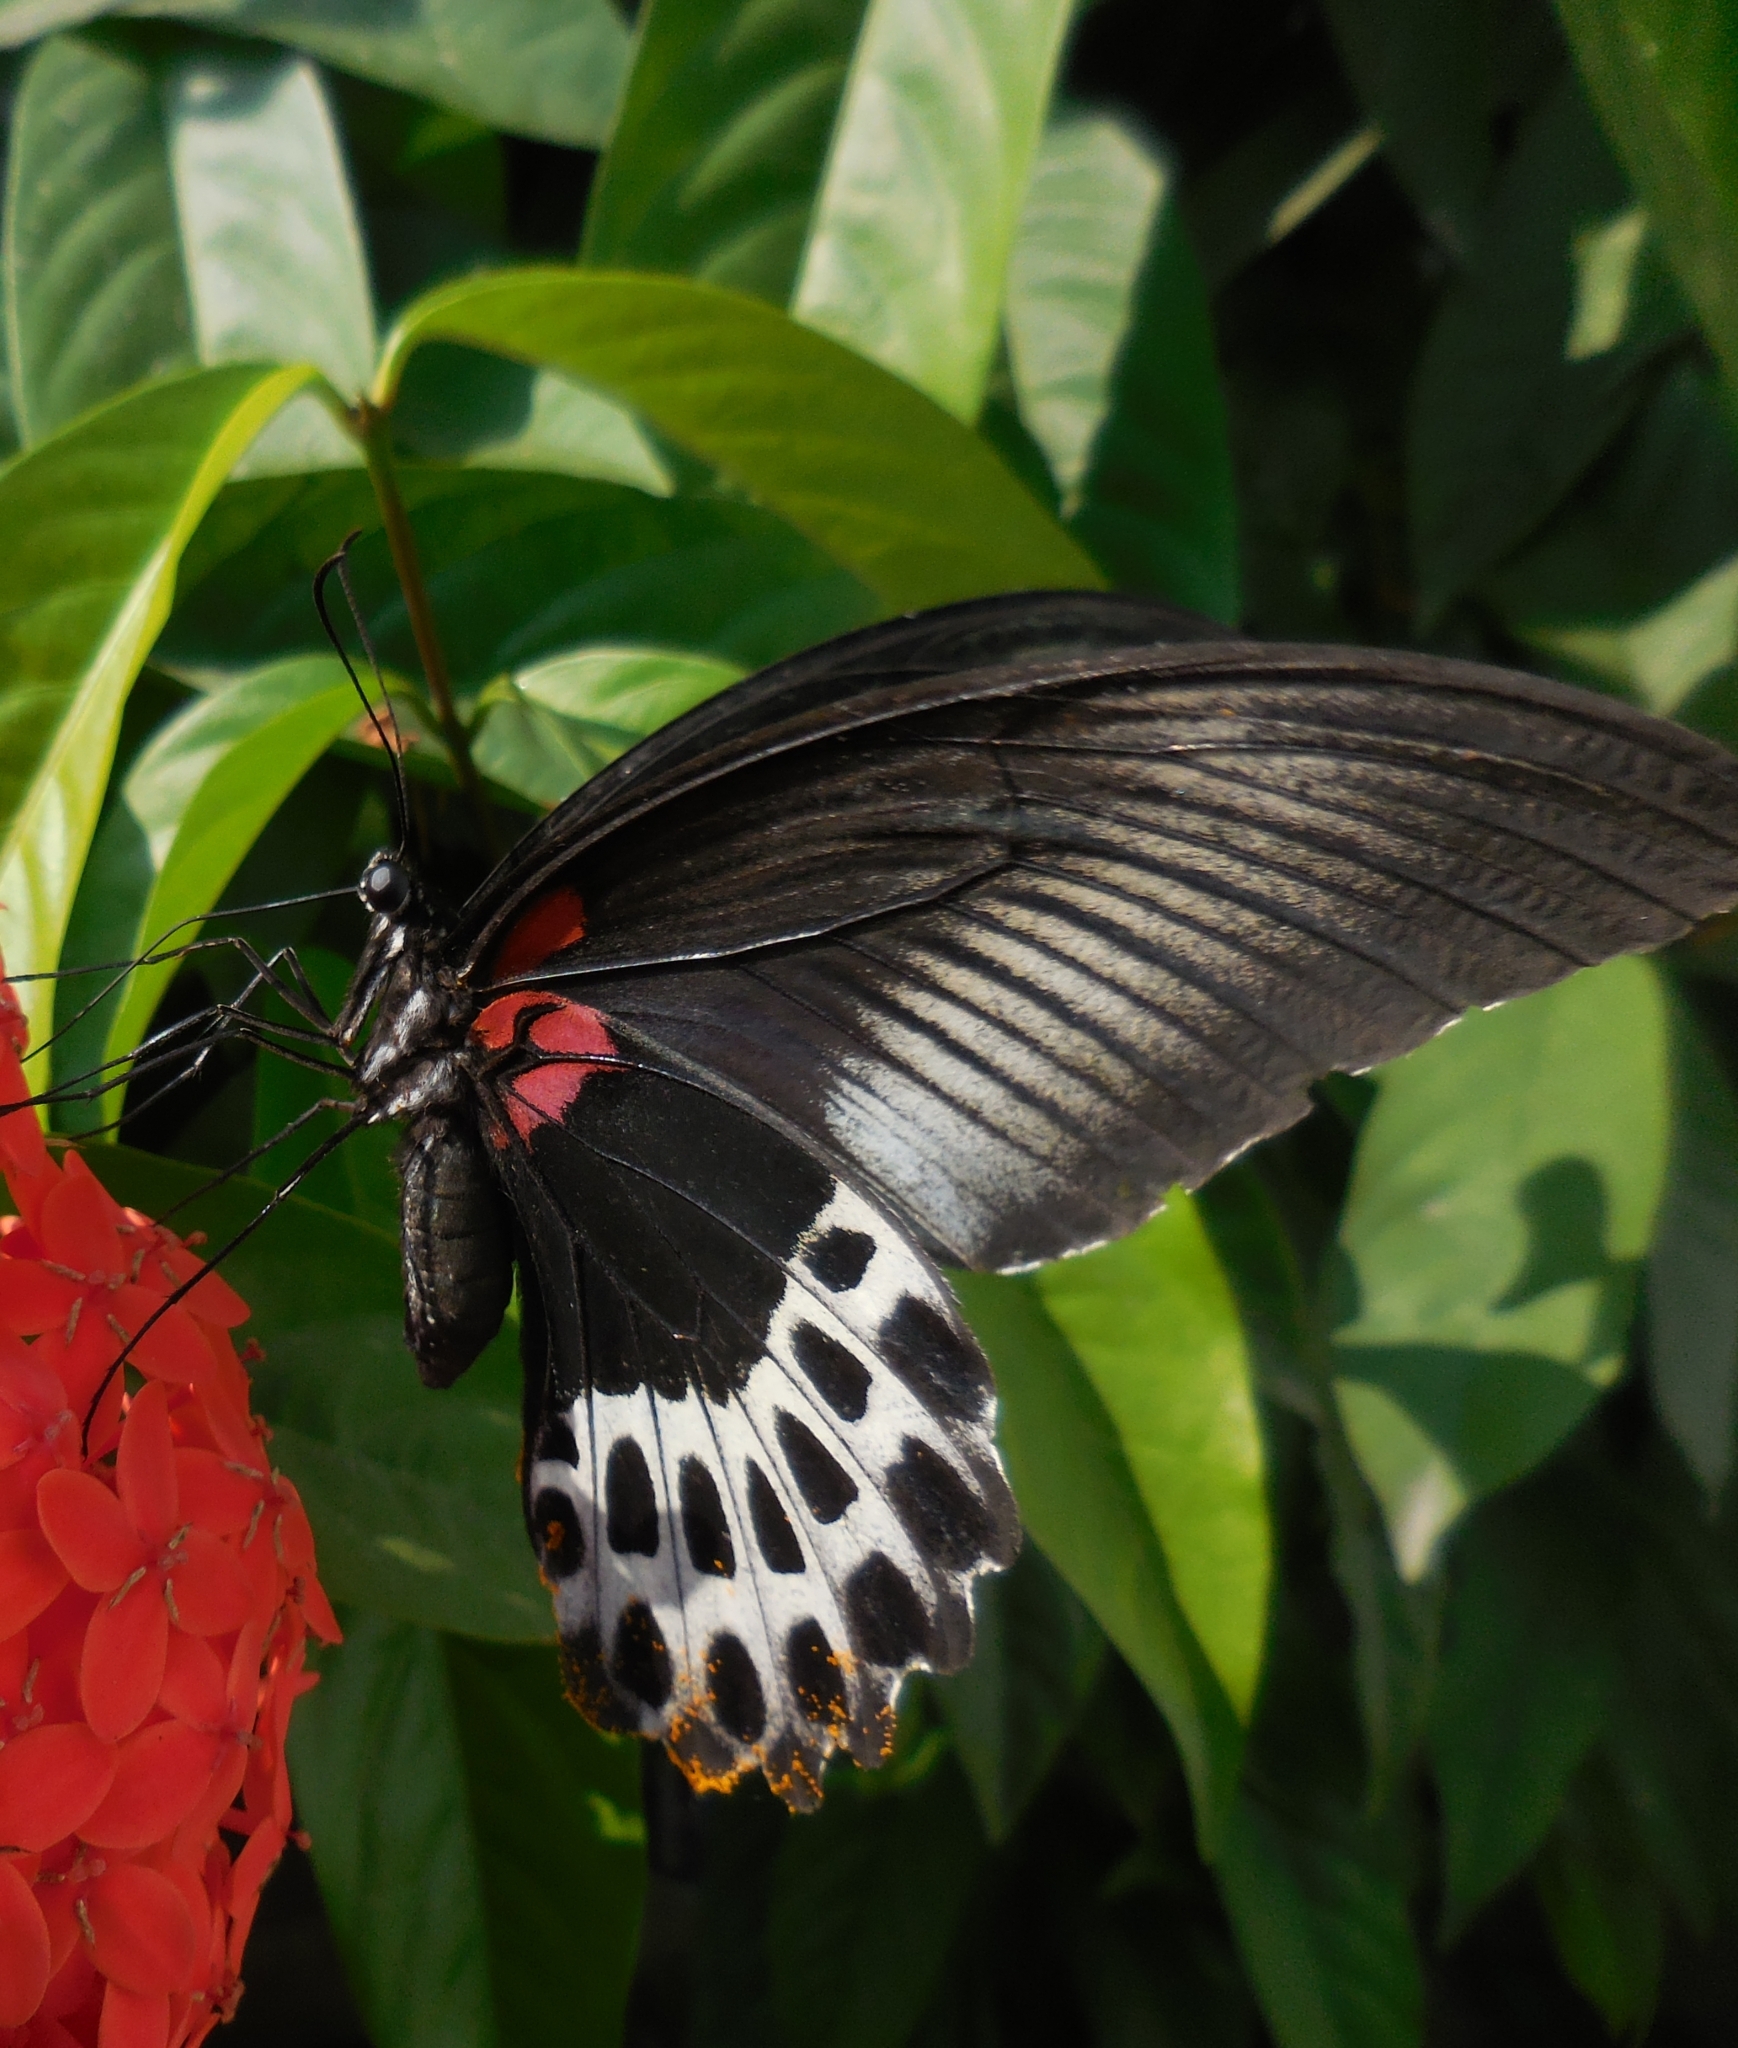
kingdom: Animalia
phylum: Arthropoda
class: Insecta
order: Lepidoptera
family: Papilionidae
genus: Papilio
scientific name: Papilio memnon
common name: Great mormon
